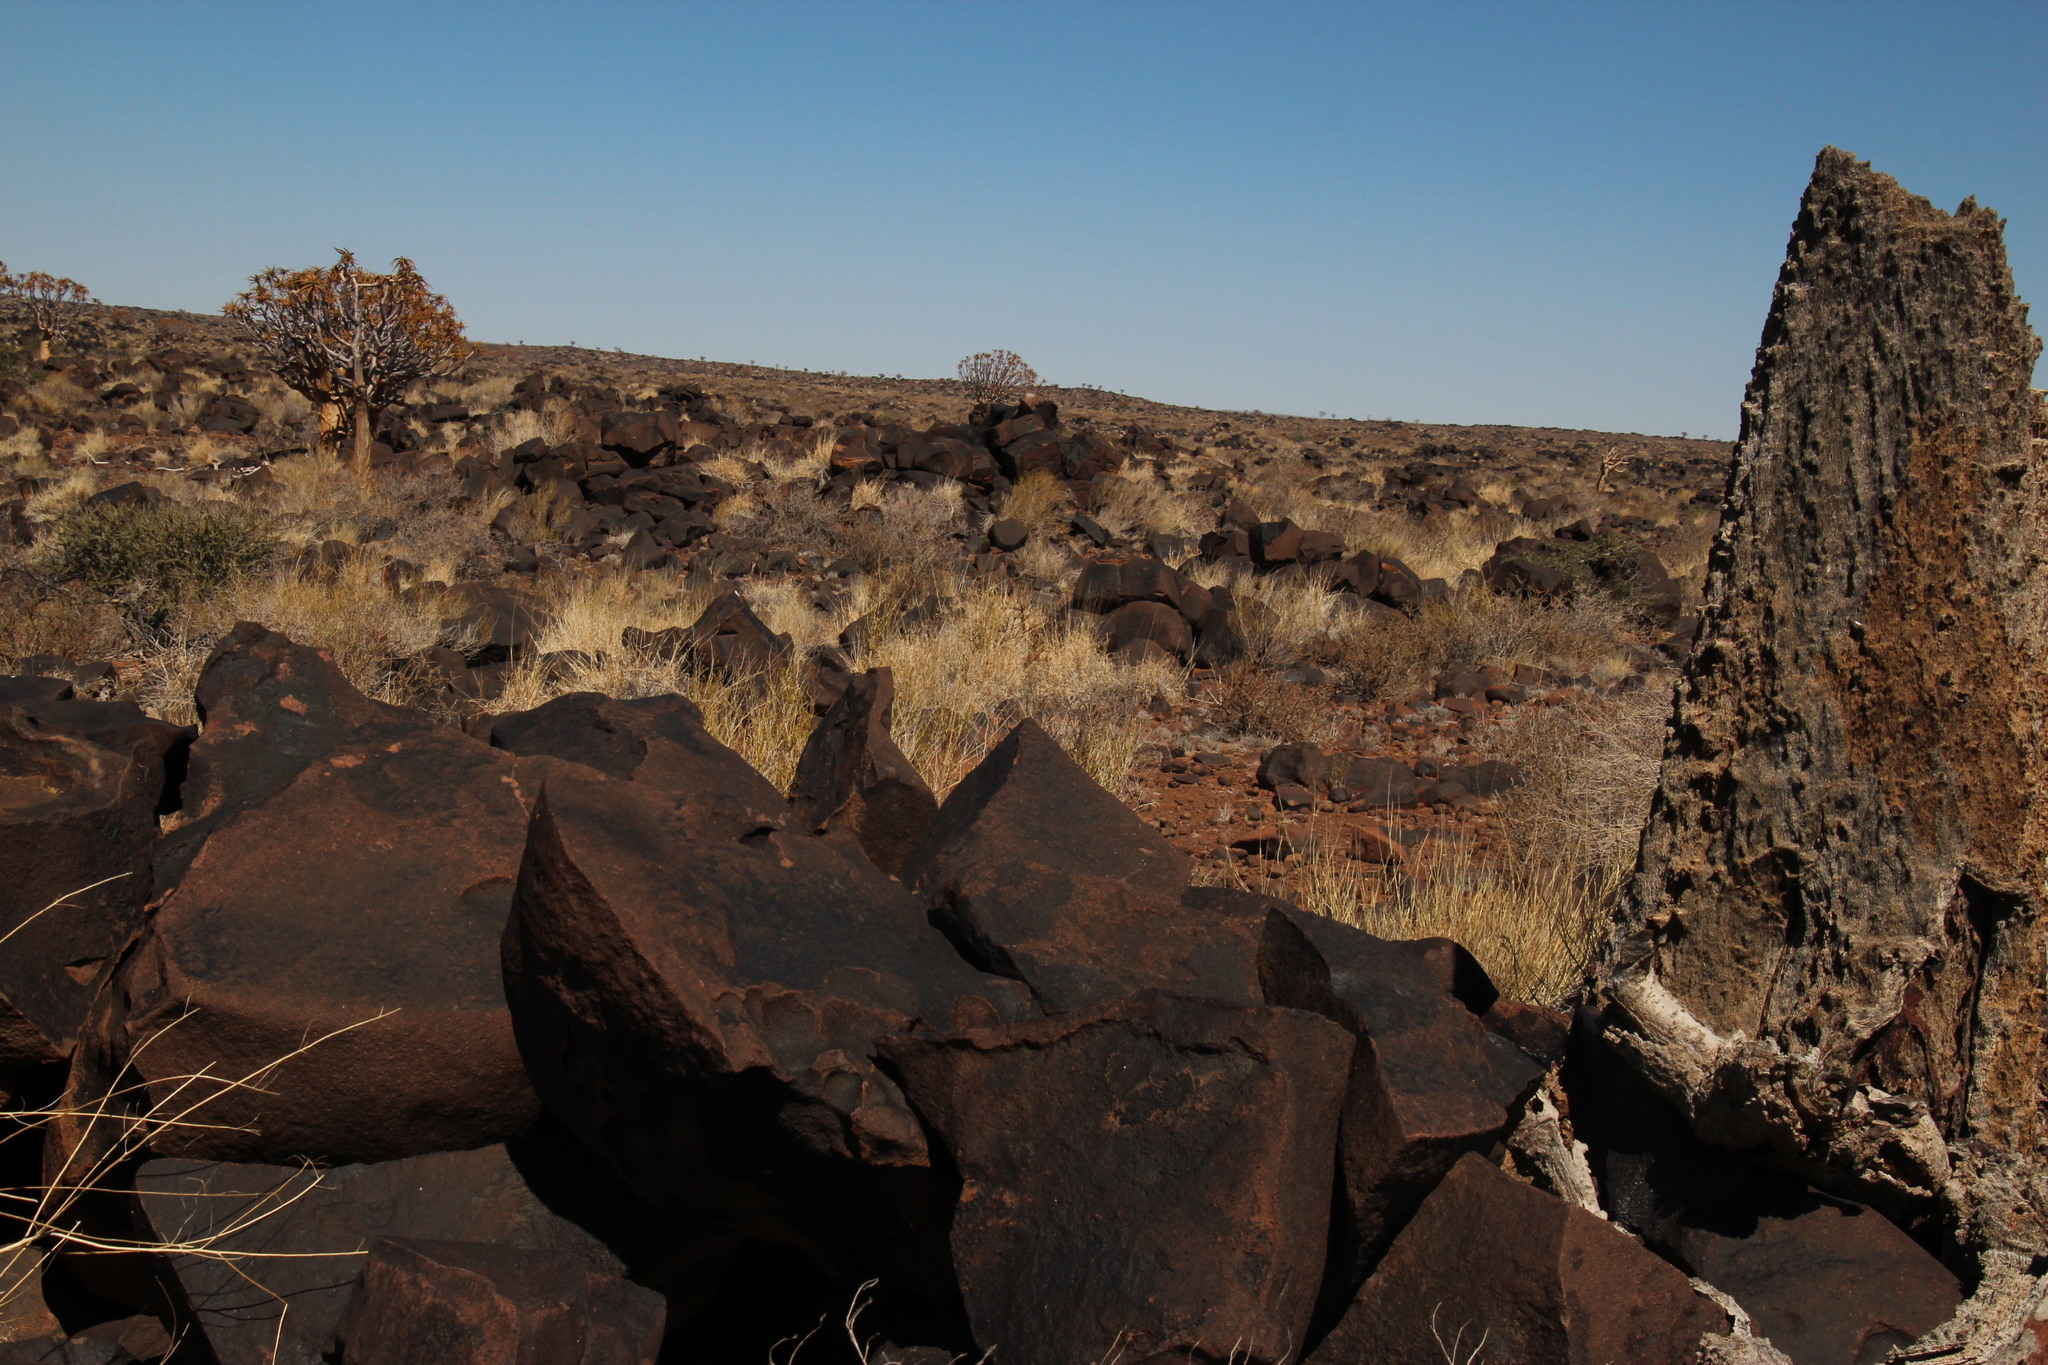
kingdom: Plantae
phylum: Tracheophyta
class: Liliopsida
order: Asparagales
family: Asphodelaceae
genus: Aloidendron
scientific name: Aloidendron dichotomum
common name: Quiver tree
